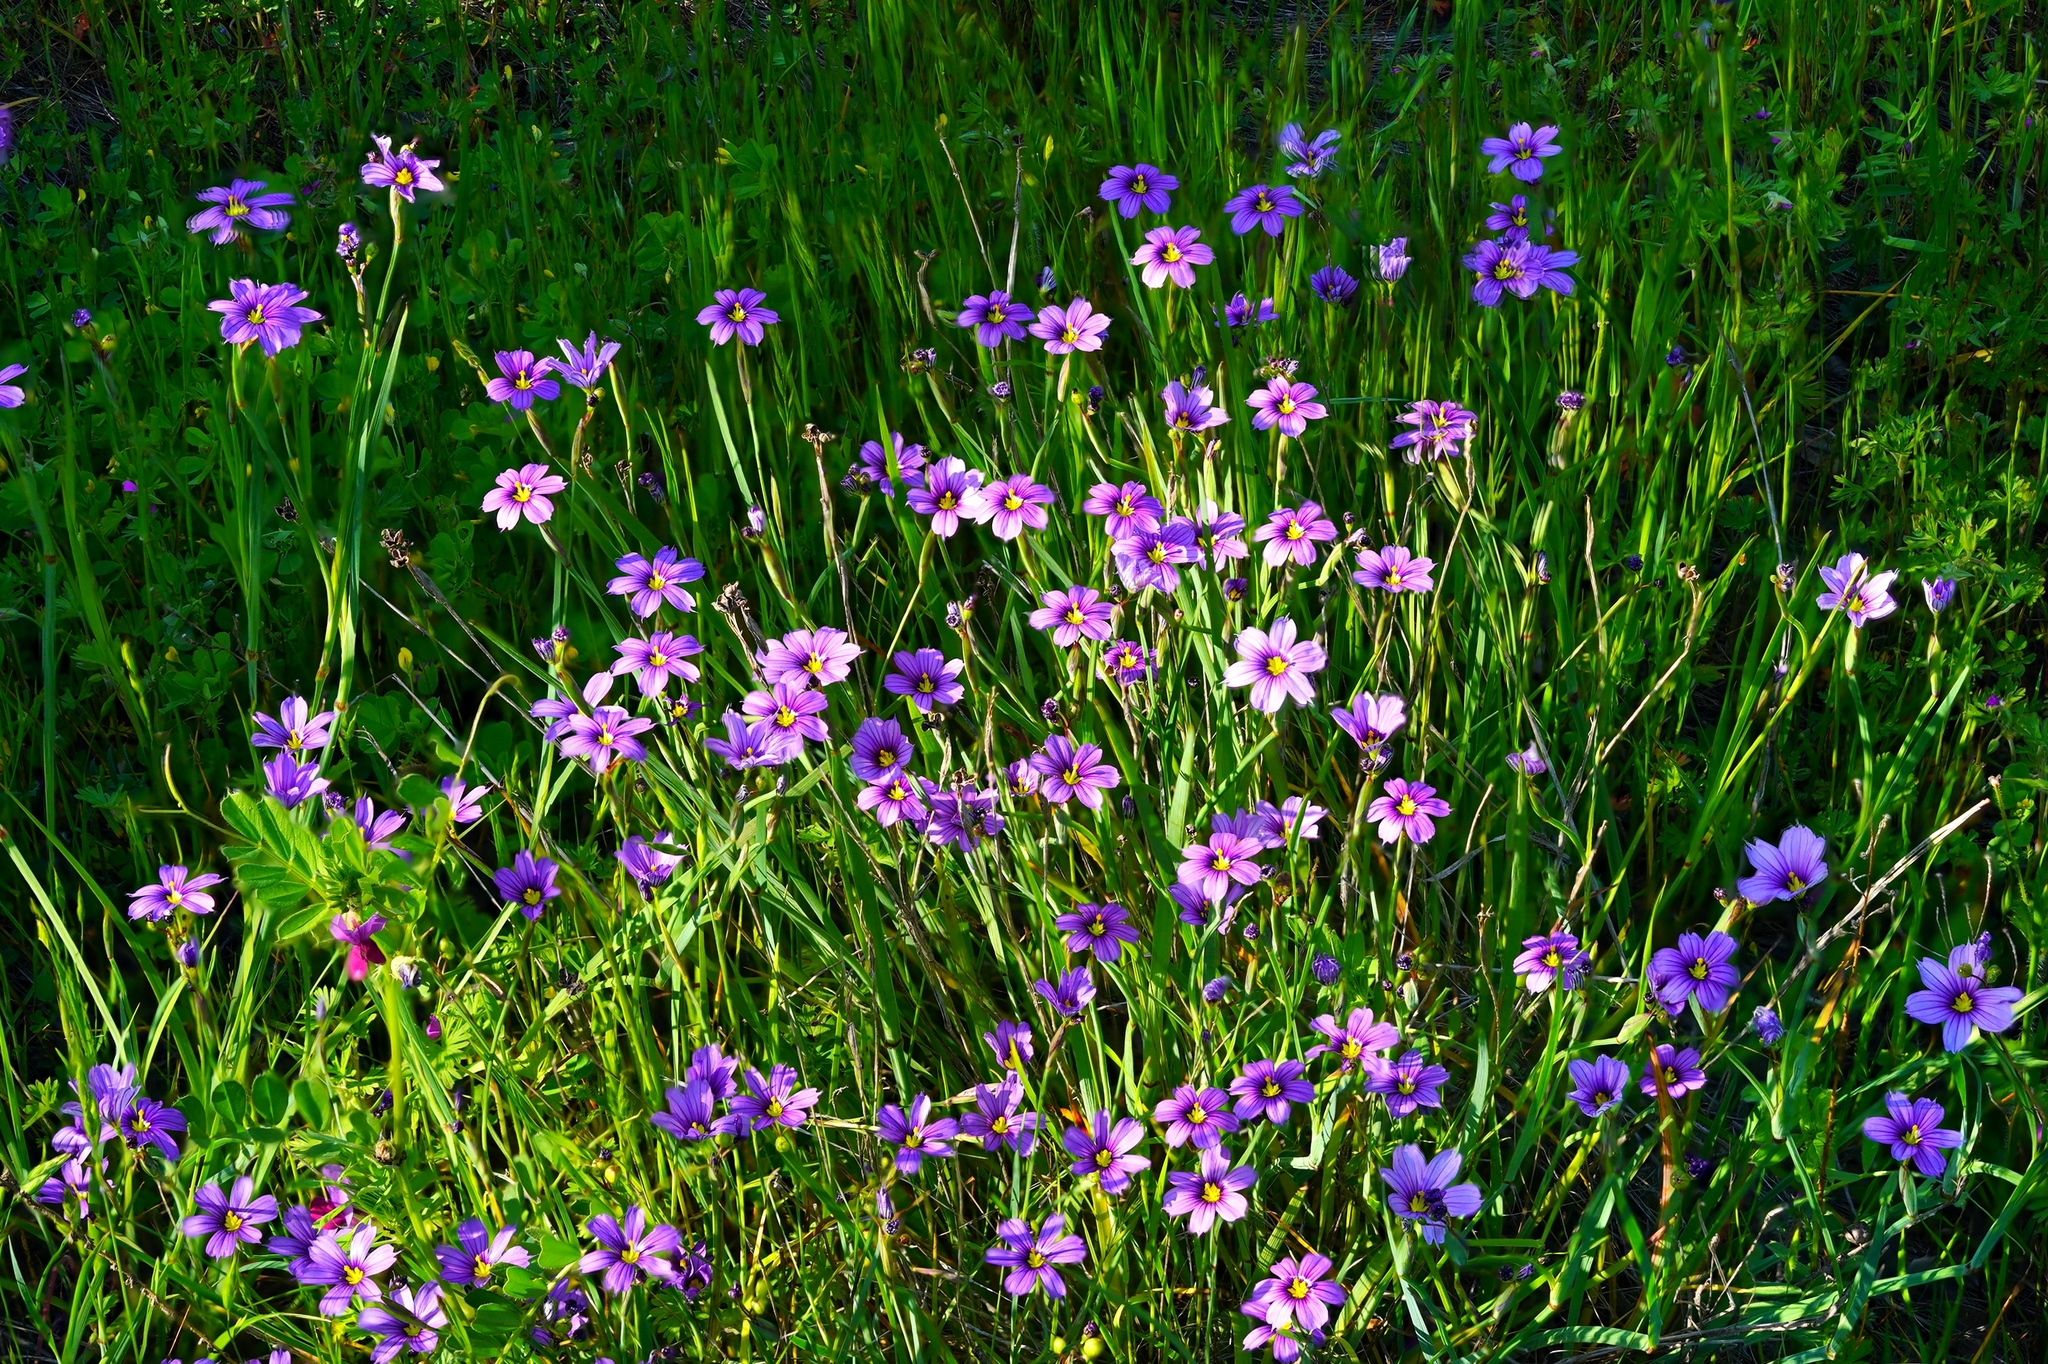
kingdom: Plantae
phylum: Tracheophyta
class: Liliopsida
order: Asparagales
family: Iridaceae
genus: Sisyrinchium
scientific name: Sisyrinchium bellum
